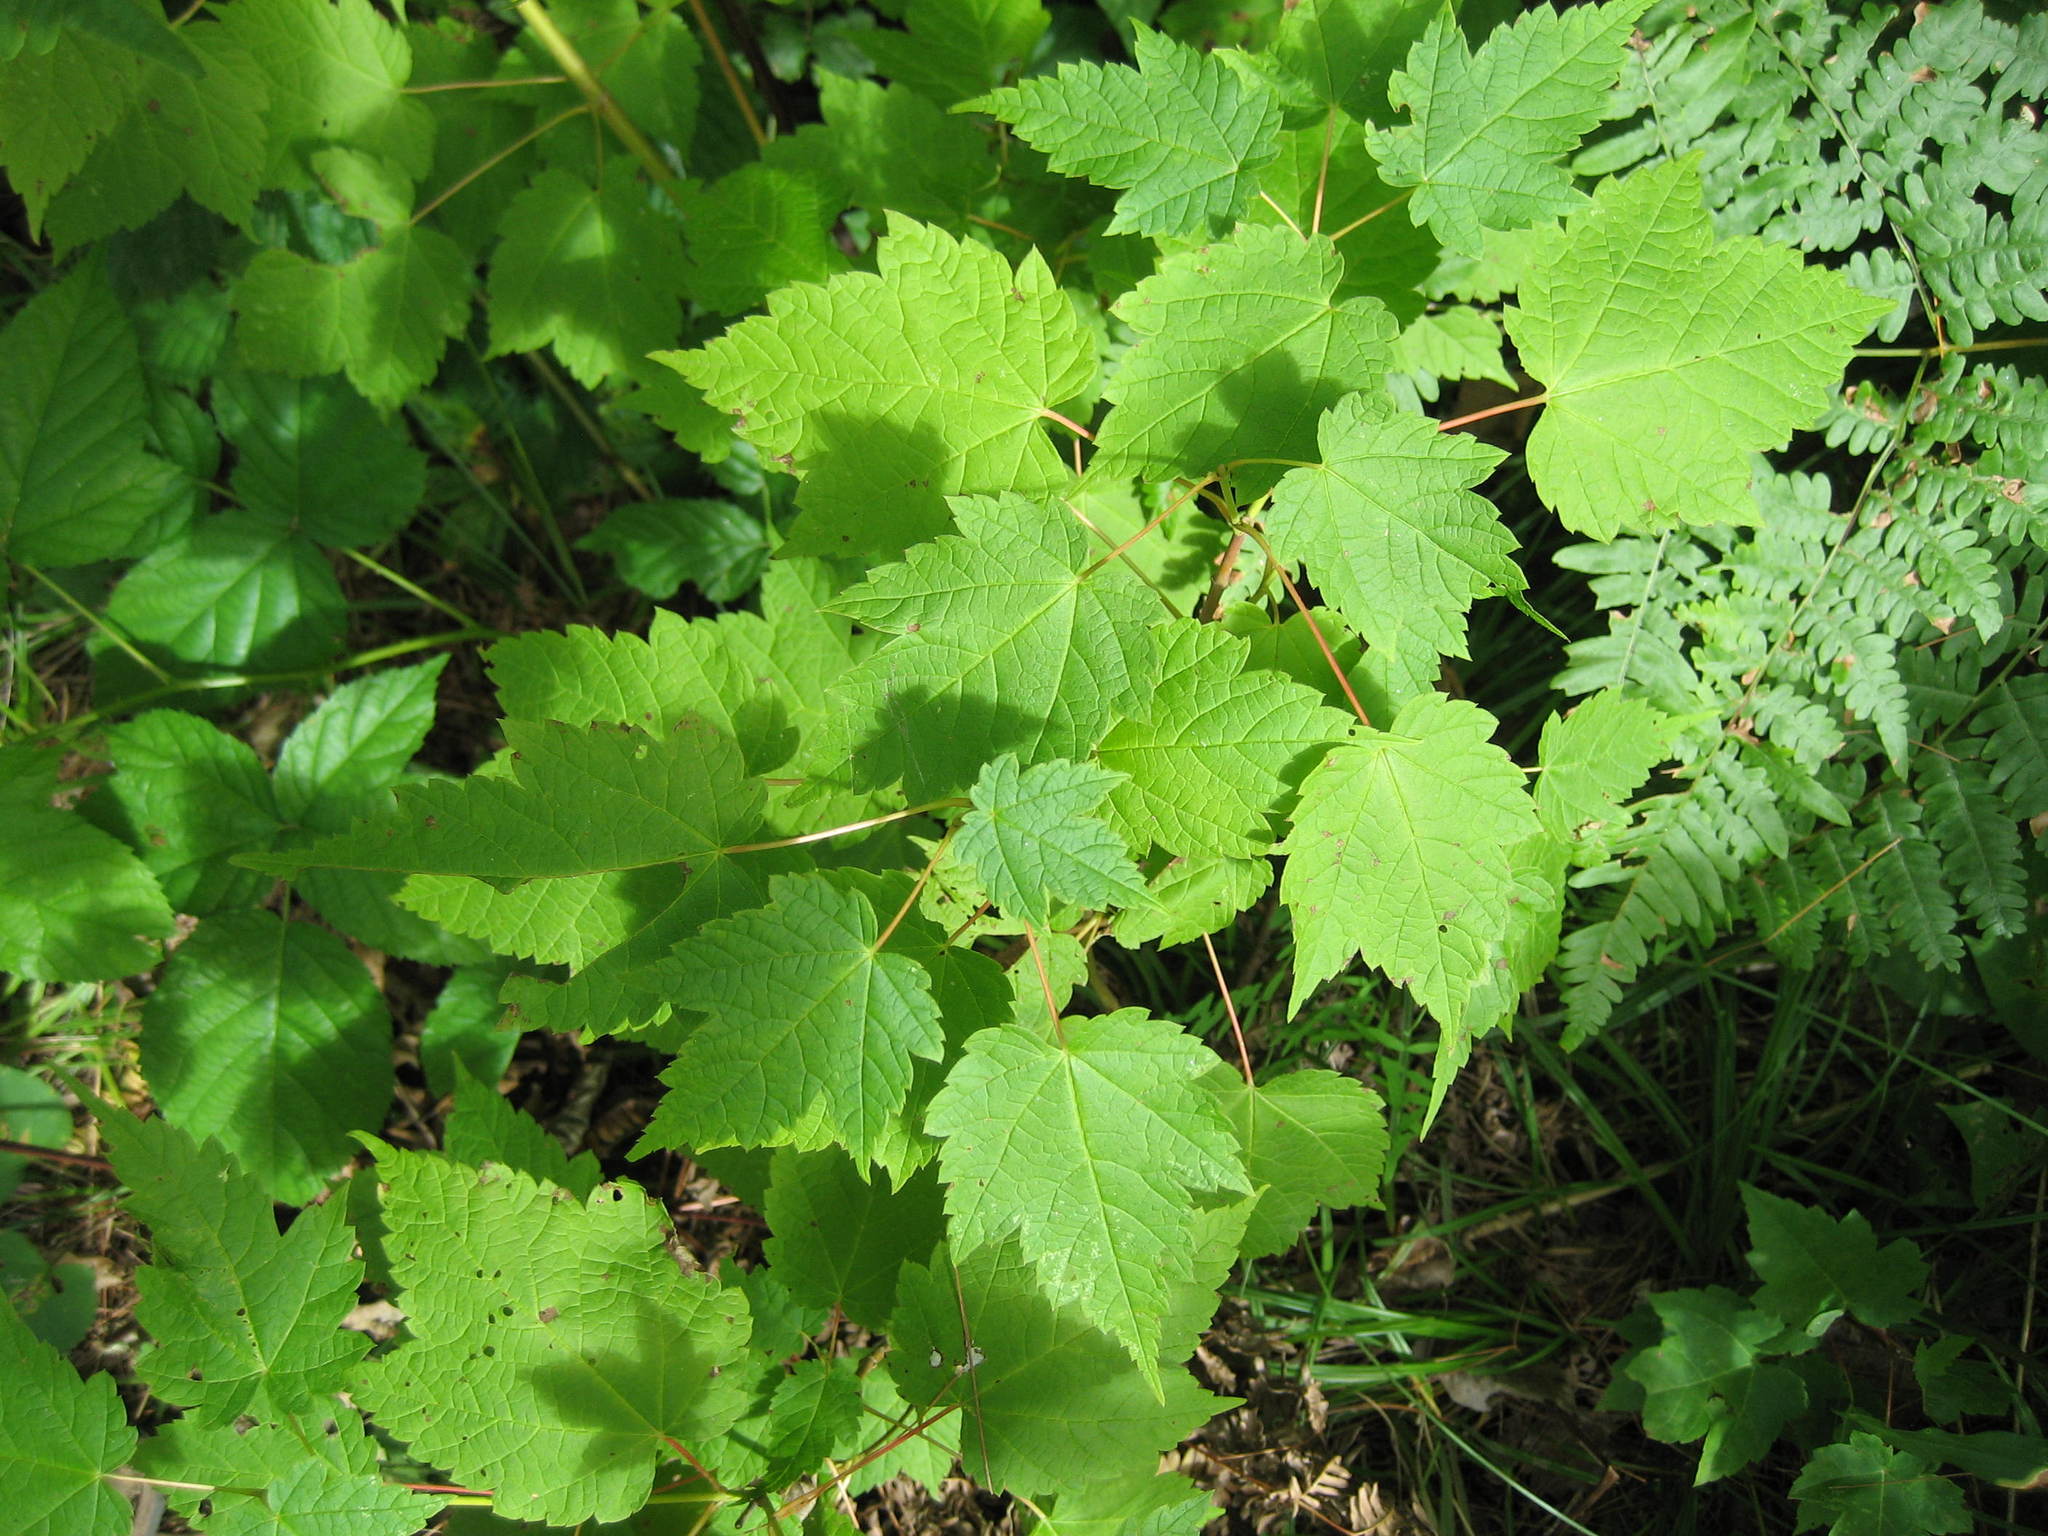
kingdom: Plantae
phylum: Tracheophyta
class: Magnoliopsida
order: Sapindales
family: Sapindaceae
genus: Acer
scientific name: Acer spicatum
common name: Mountain maple
